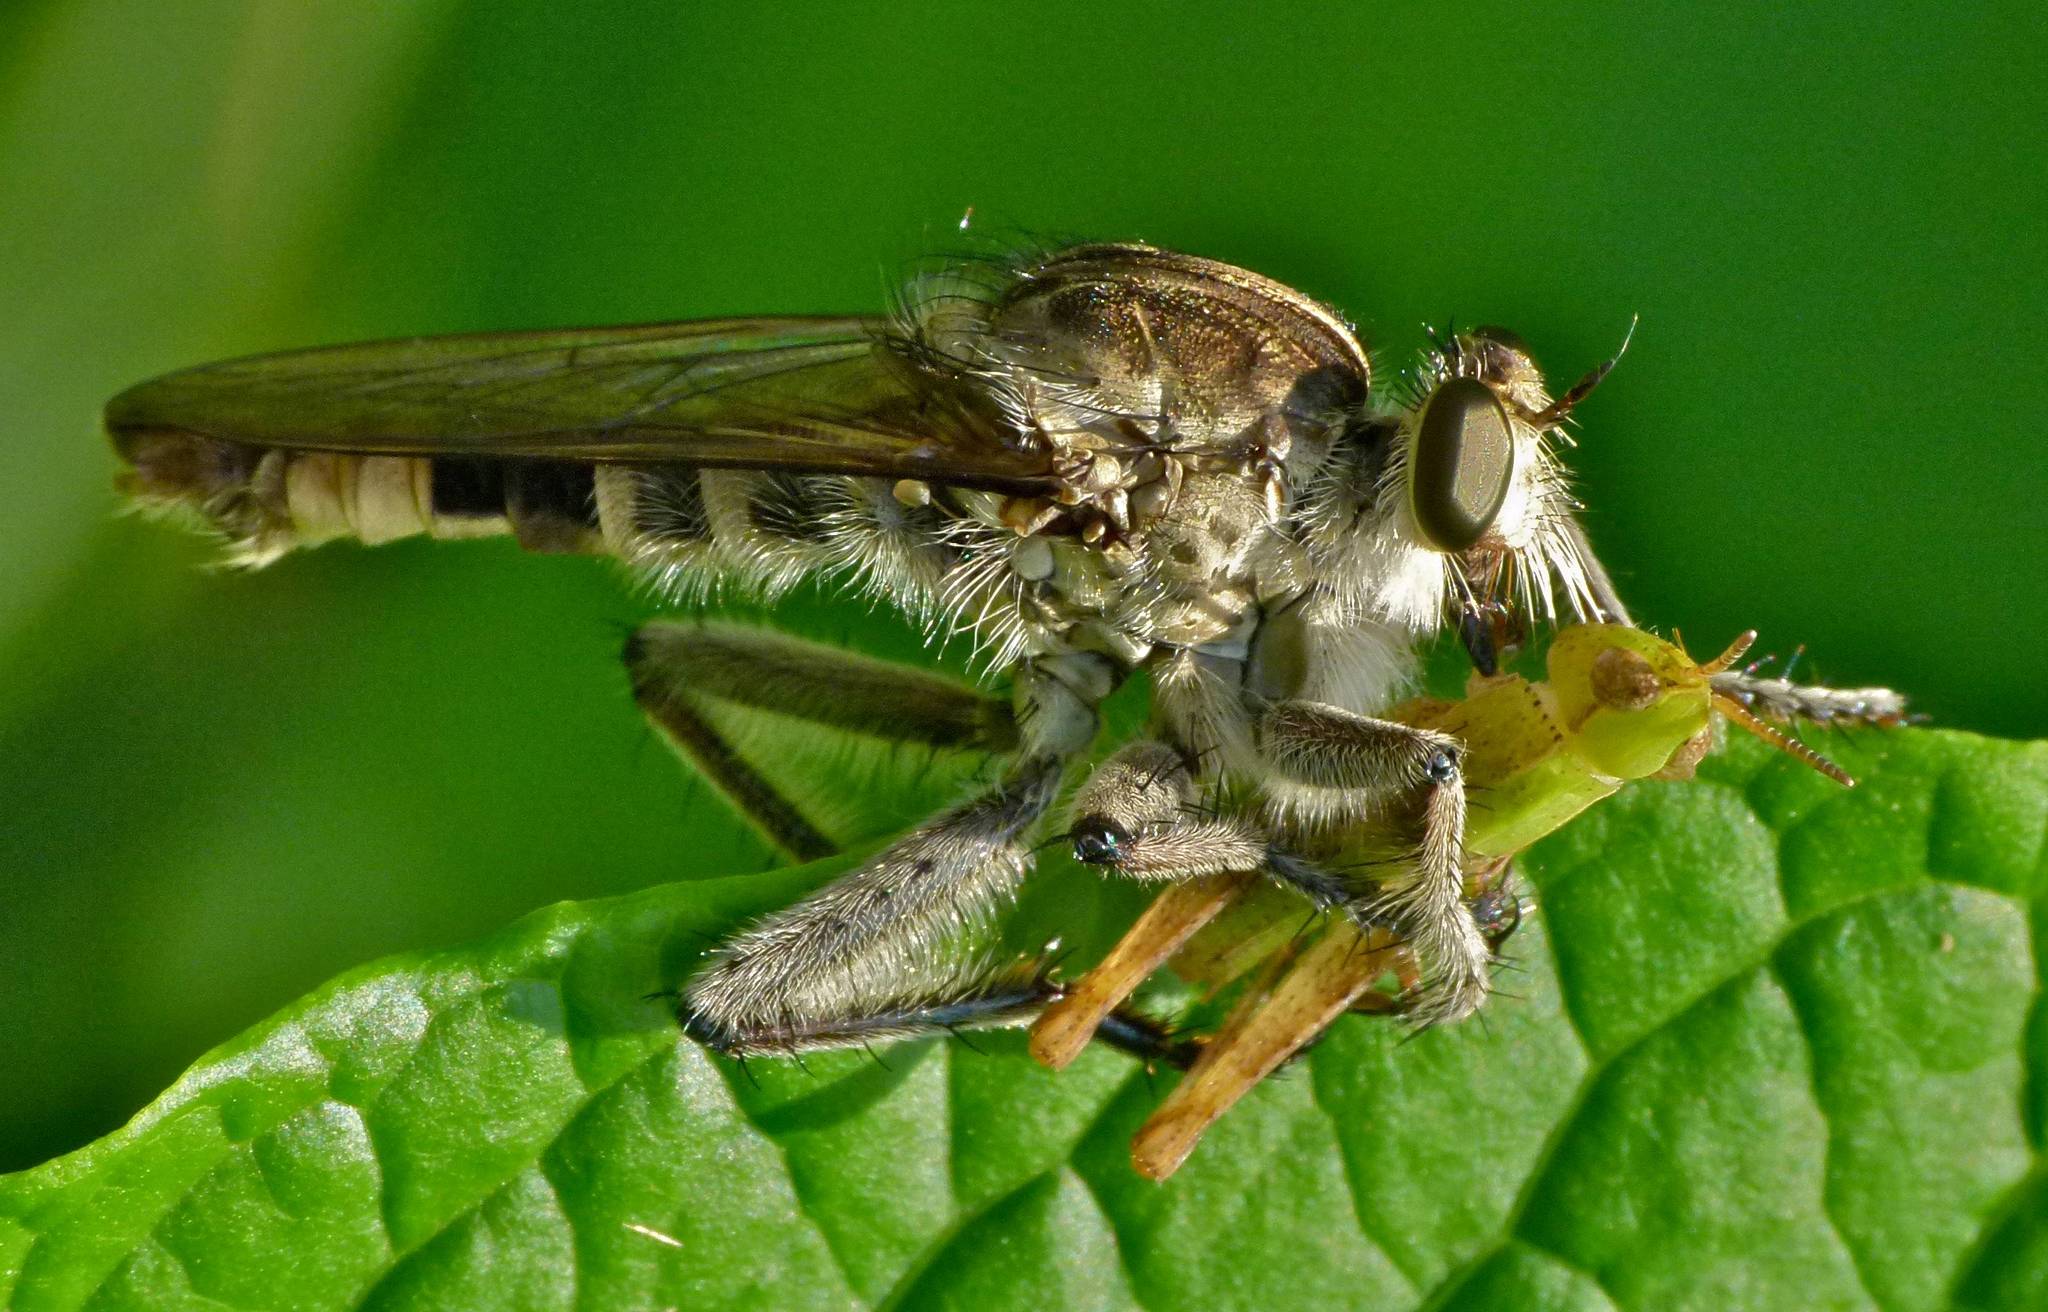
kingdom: Animalia
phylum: Arthropoda
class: Insecta
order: Diptera
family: Asilidae
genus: Triorla
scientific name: Triorla interrupta
